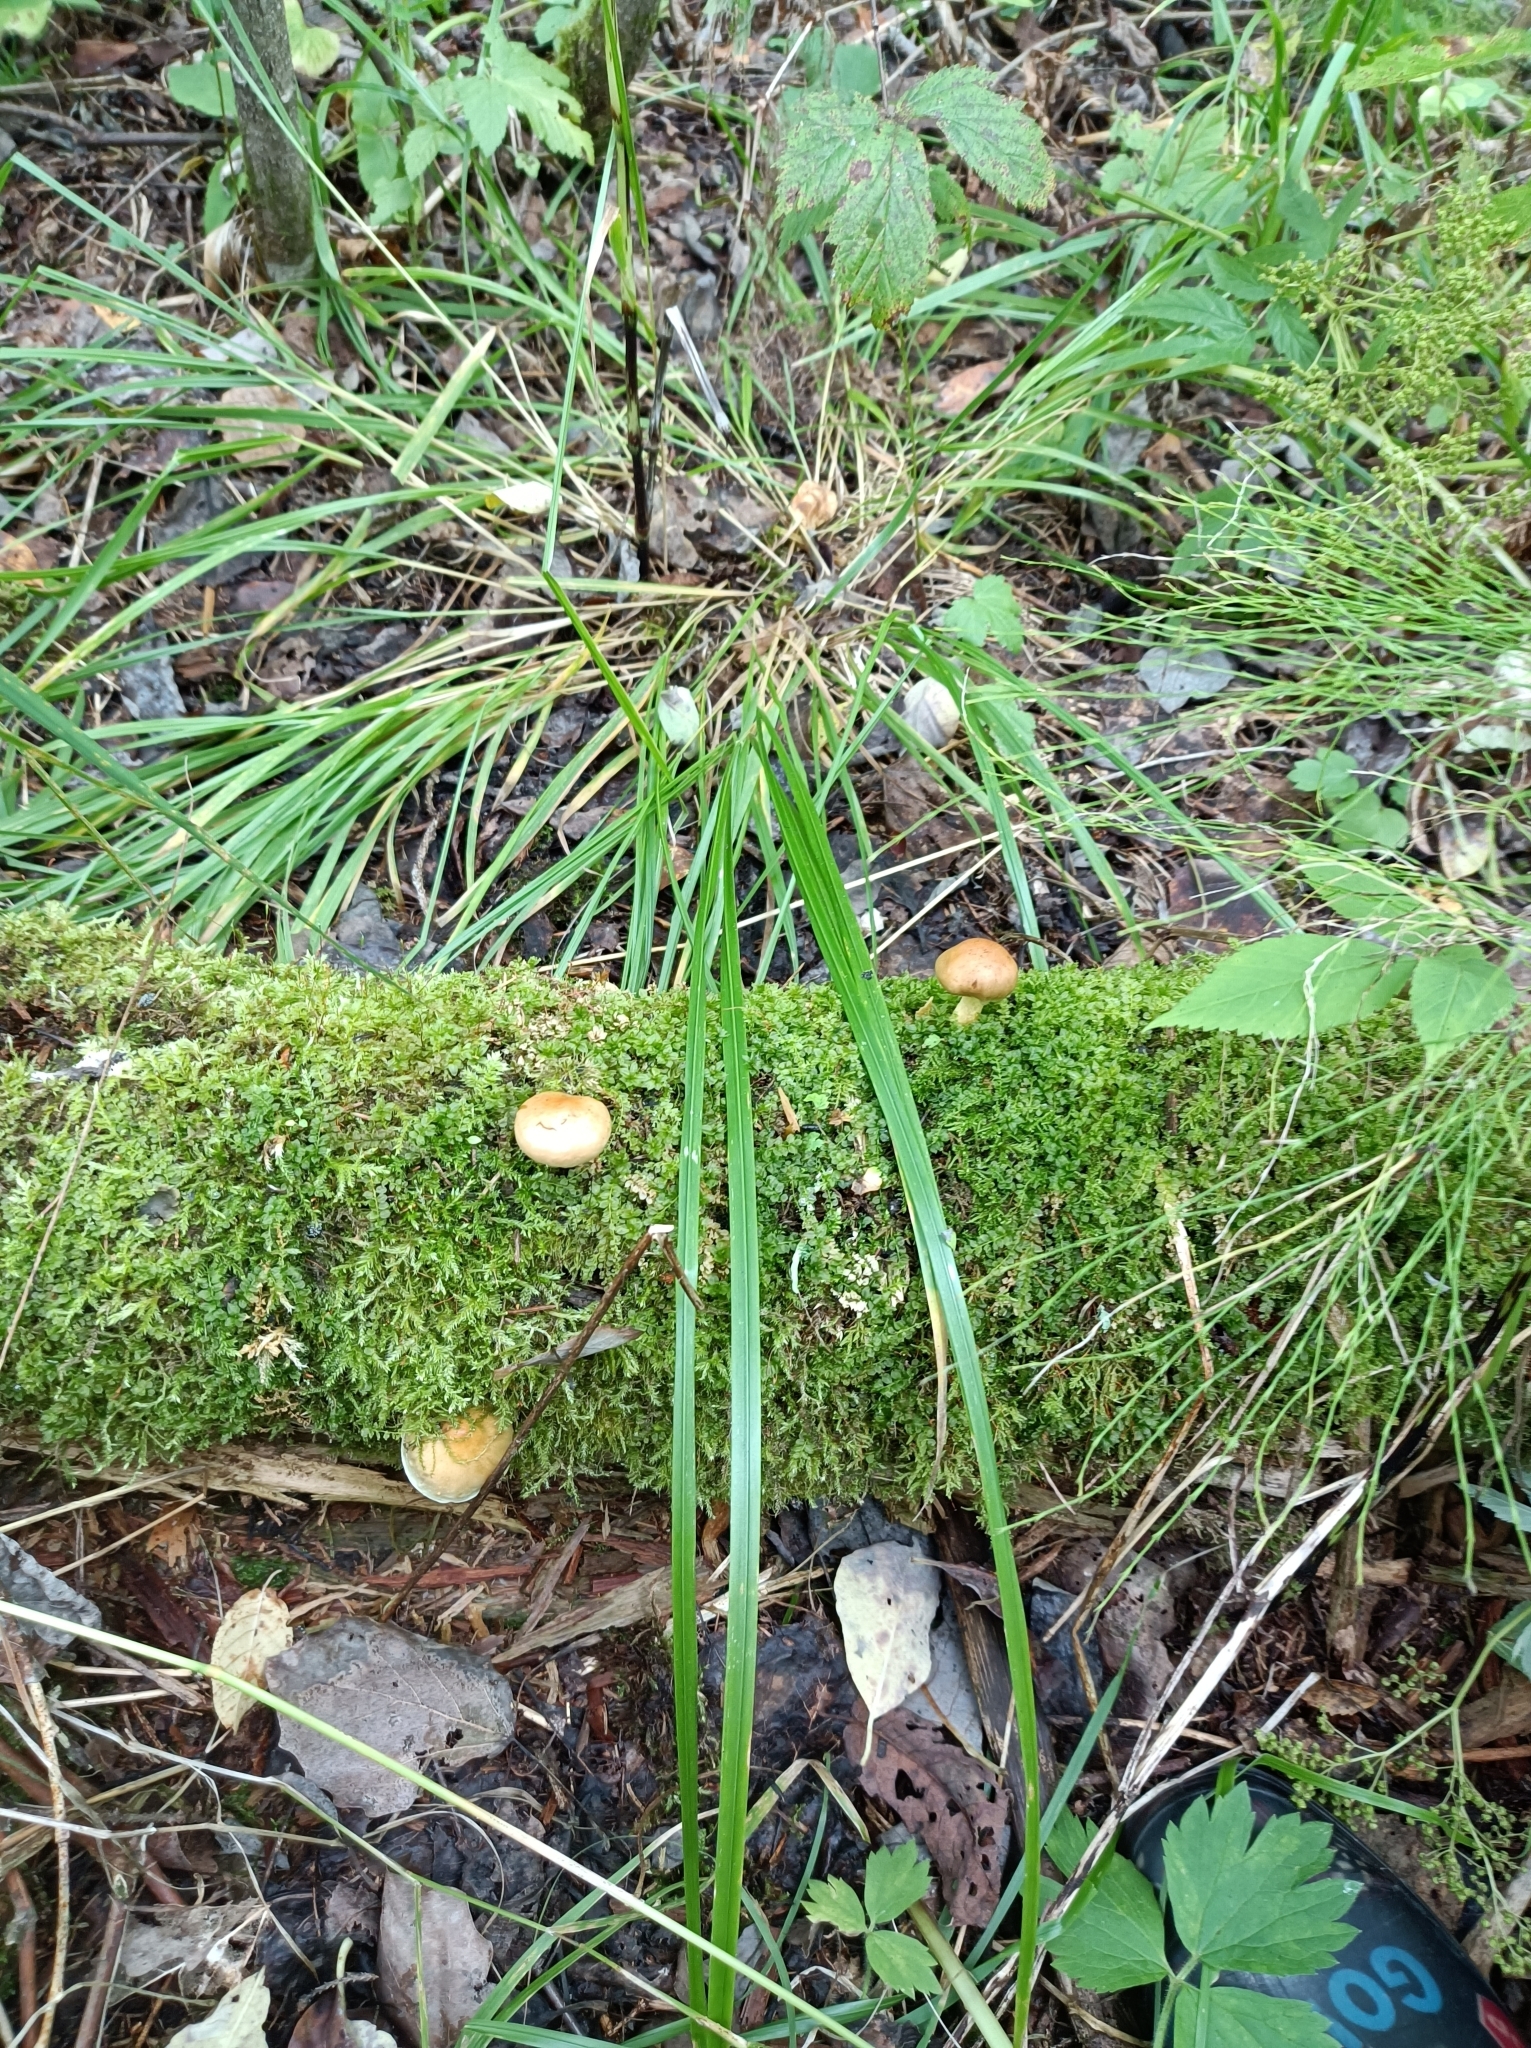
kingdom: Fungi
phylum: Basidiomycota
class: Agaricomycetes
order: Agaricales
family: Strophariaceae
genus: Pholiota
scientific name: Pholiota spumosa
